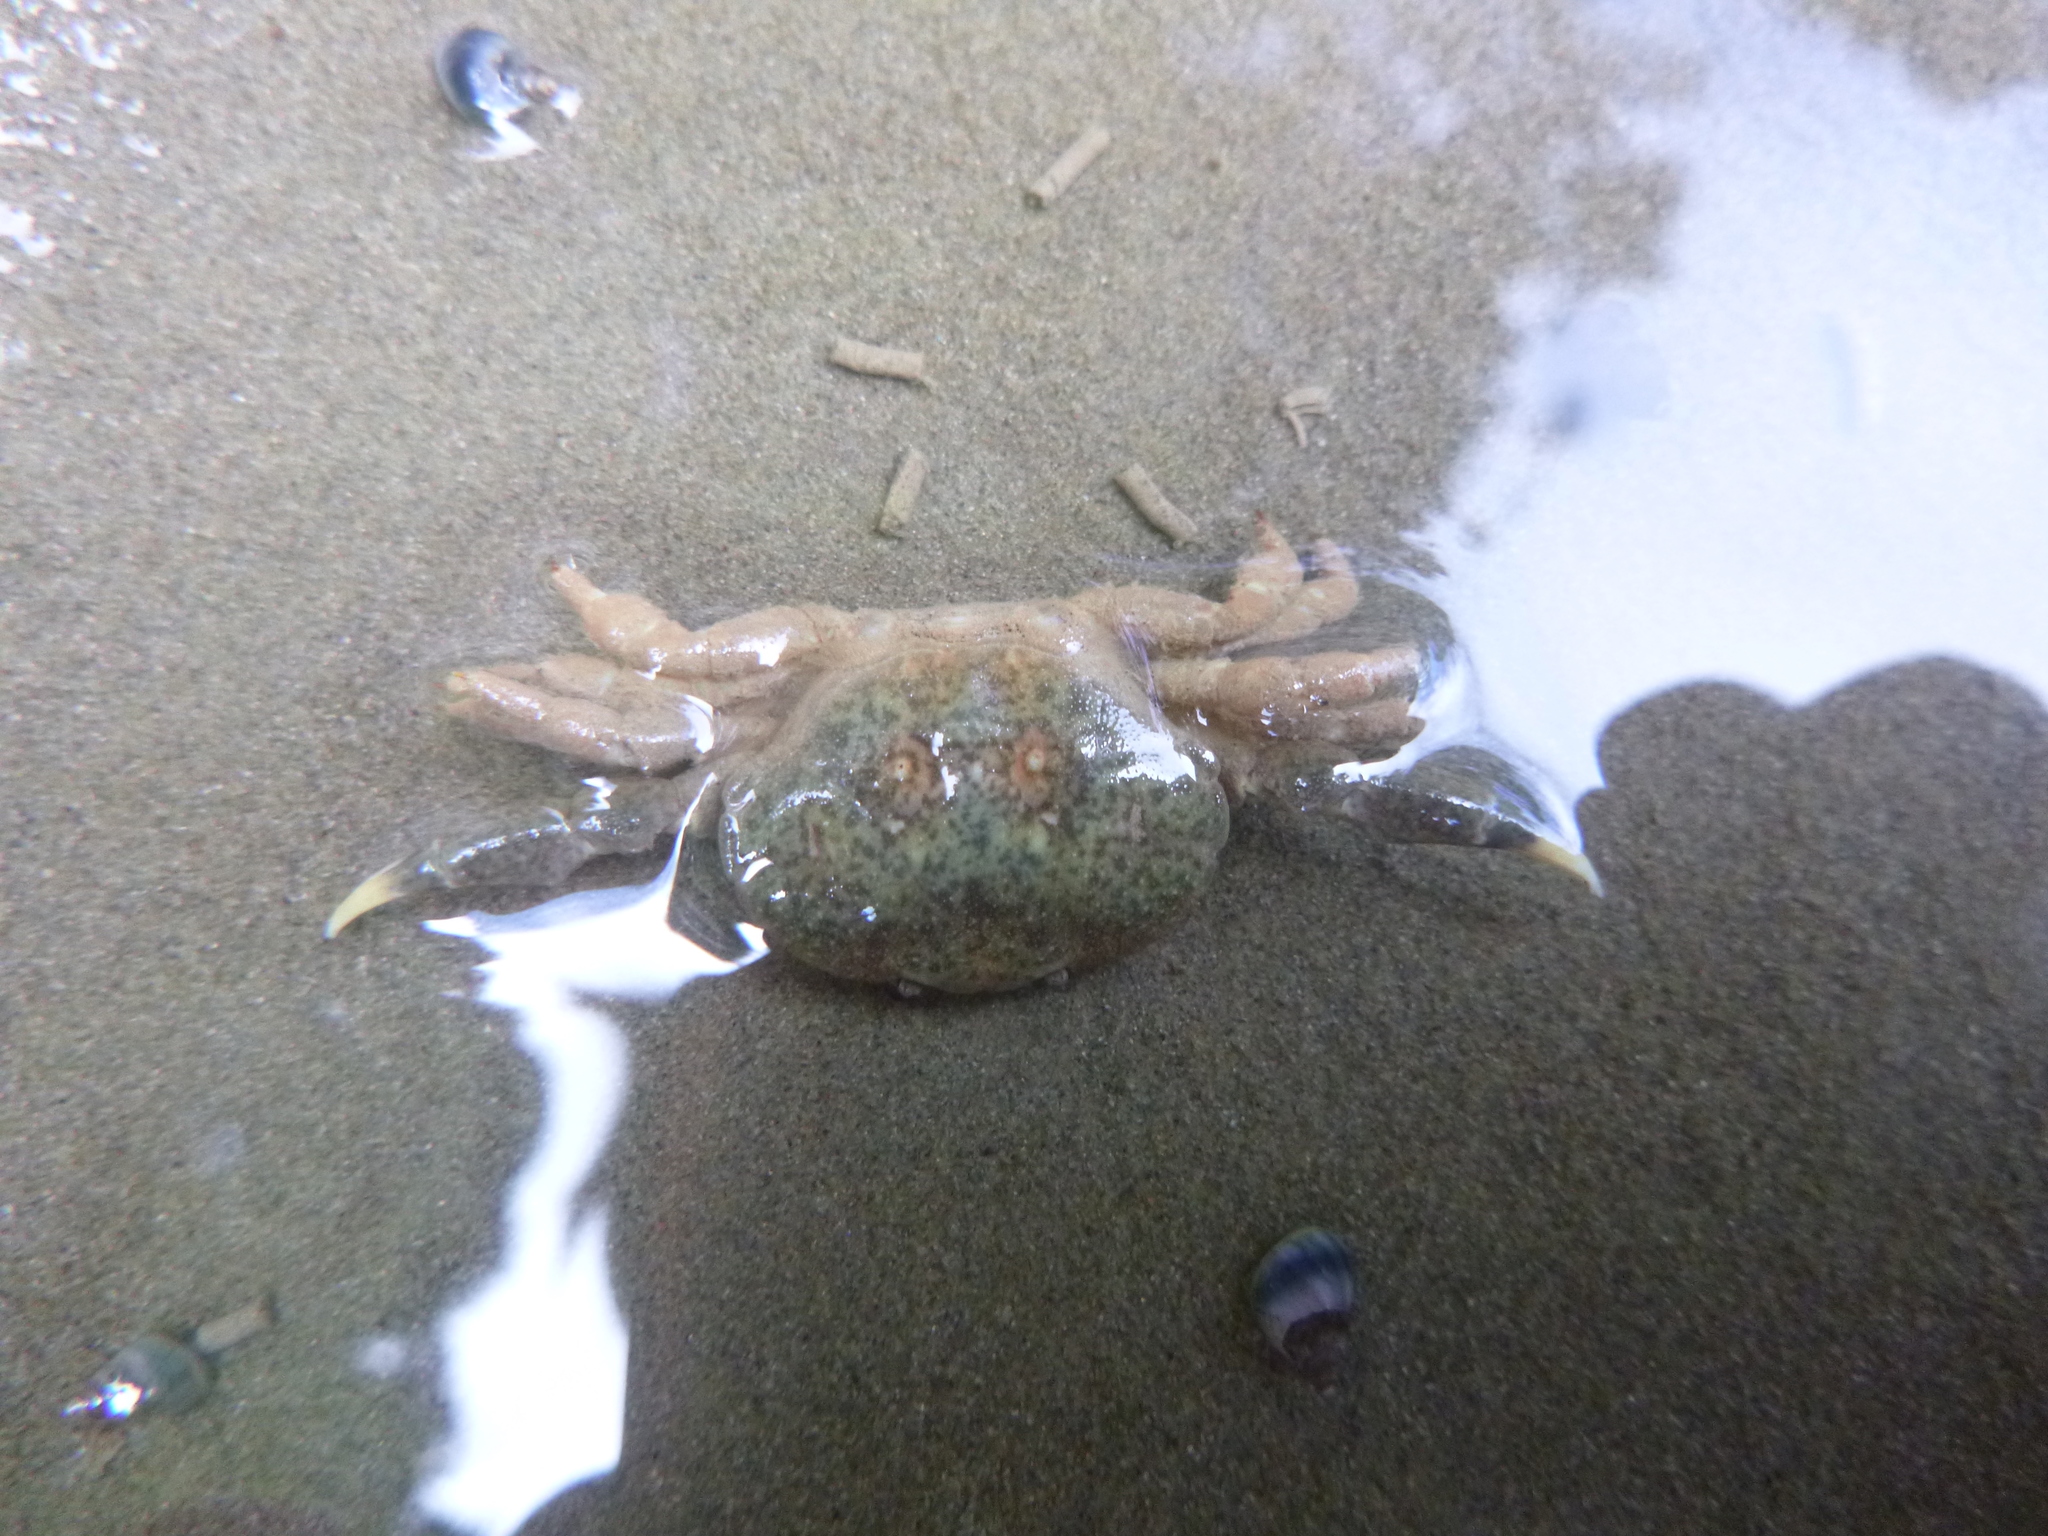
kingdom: Animalia
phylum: Arthropoda
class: Malacostraca
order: Decapoda
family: Heteroziidae
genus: Heterozius
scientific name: Heterozius rotundifrons
